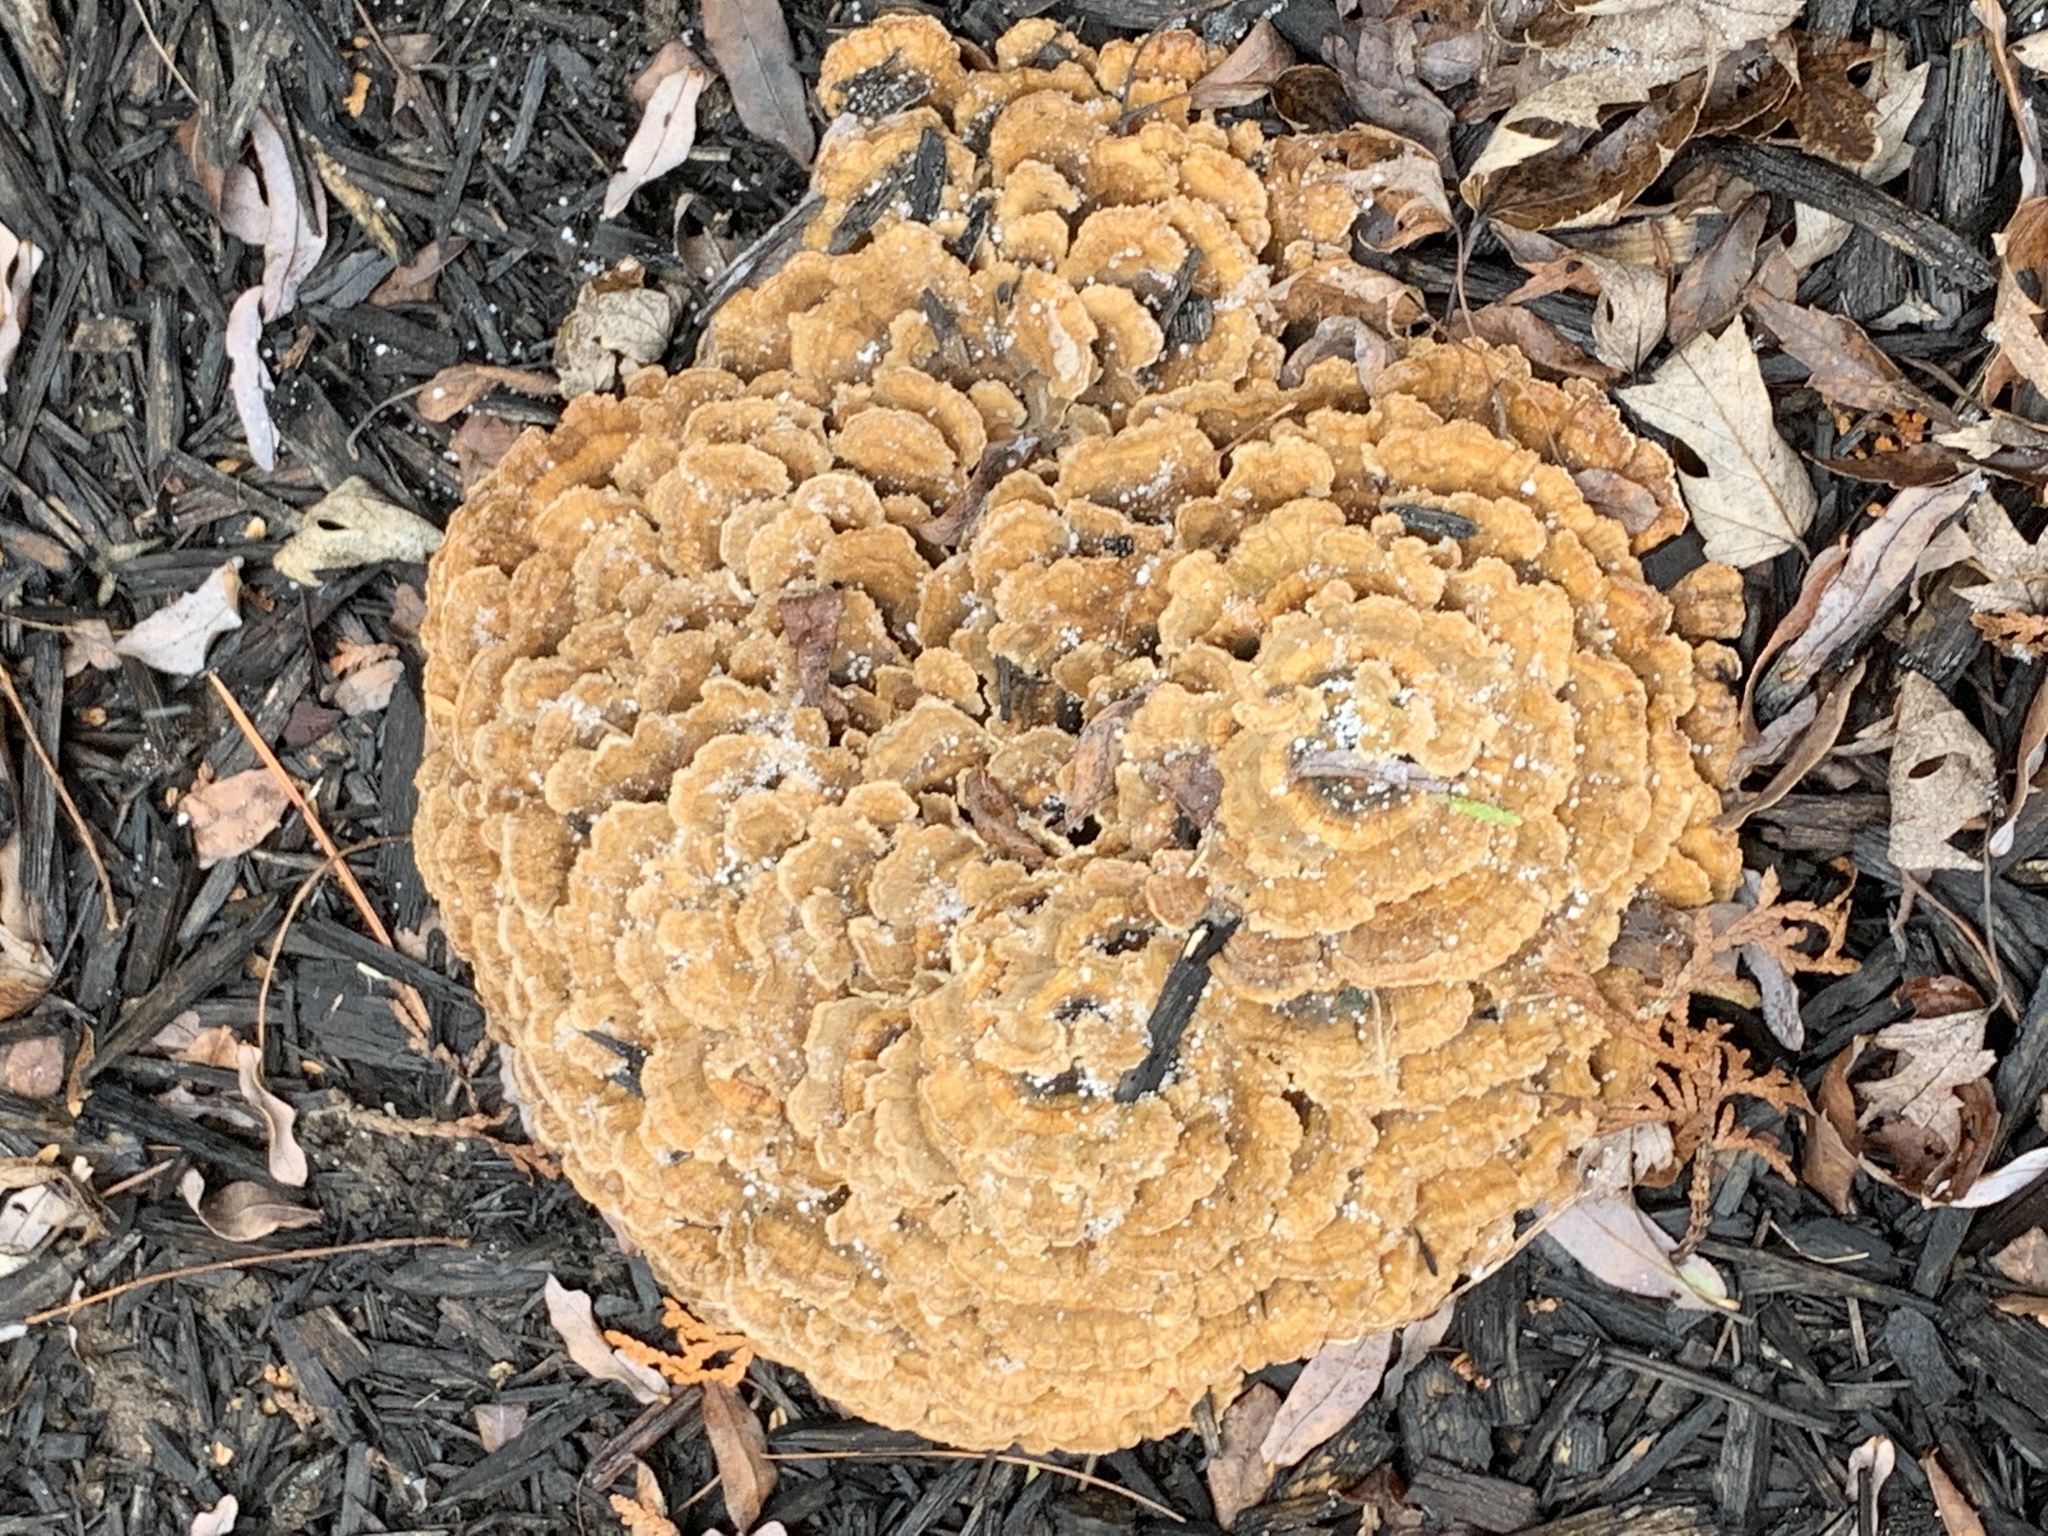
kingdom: Fungi
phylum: Basidiomycota
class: Agaricomycetes
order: Russulales
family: Stereaceae
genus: Stereum
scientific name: Stereum complicatum
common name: Crowded parchment
